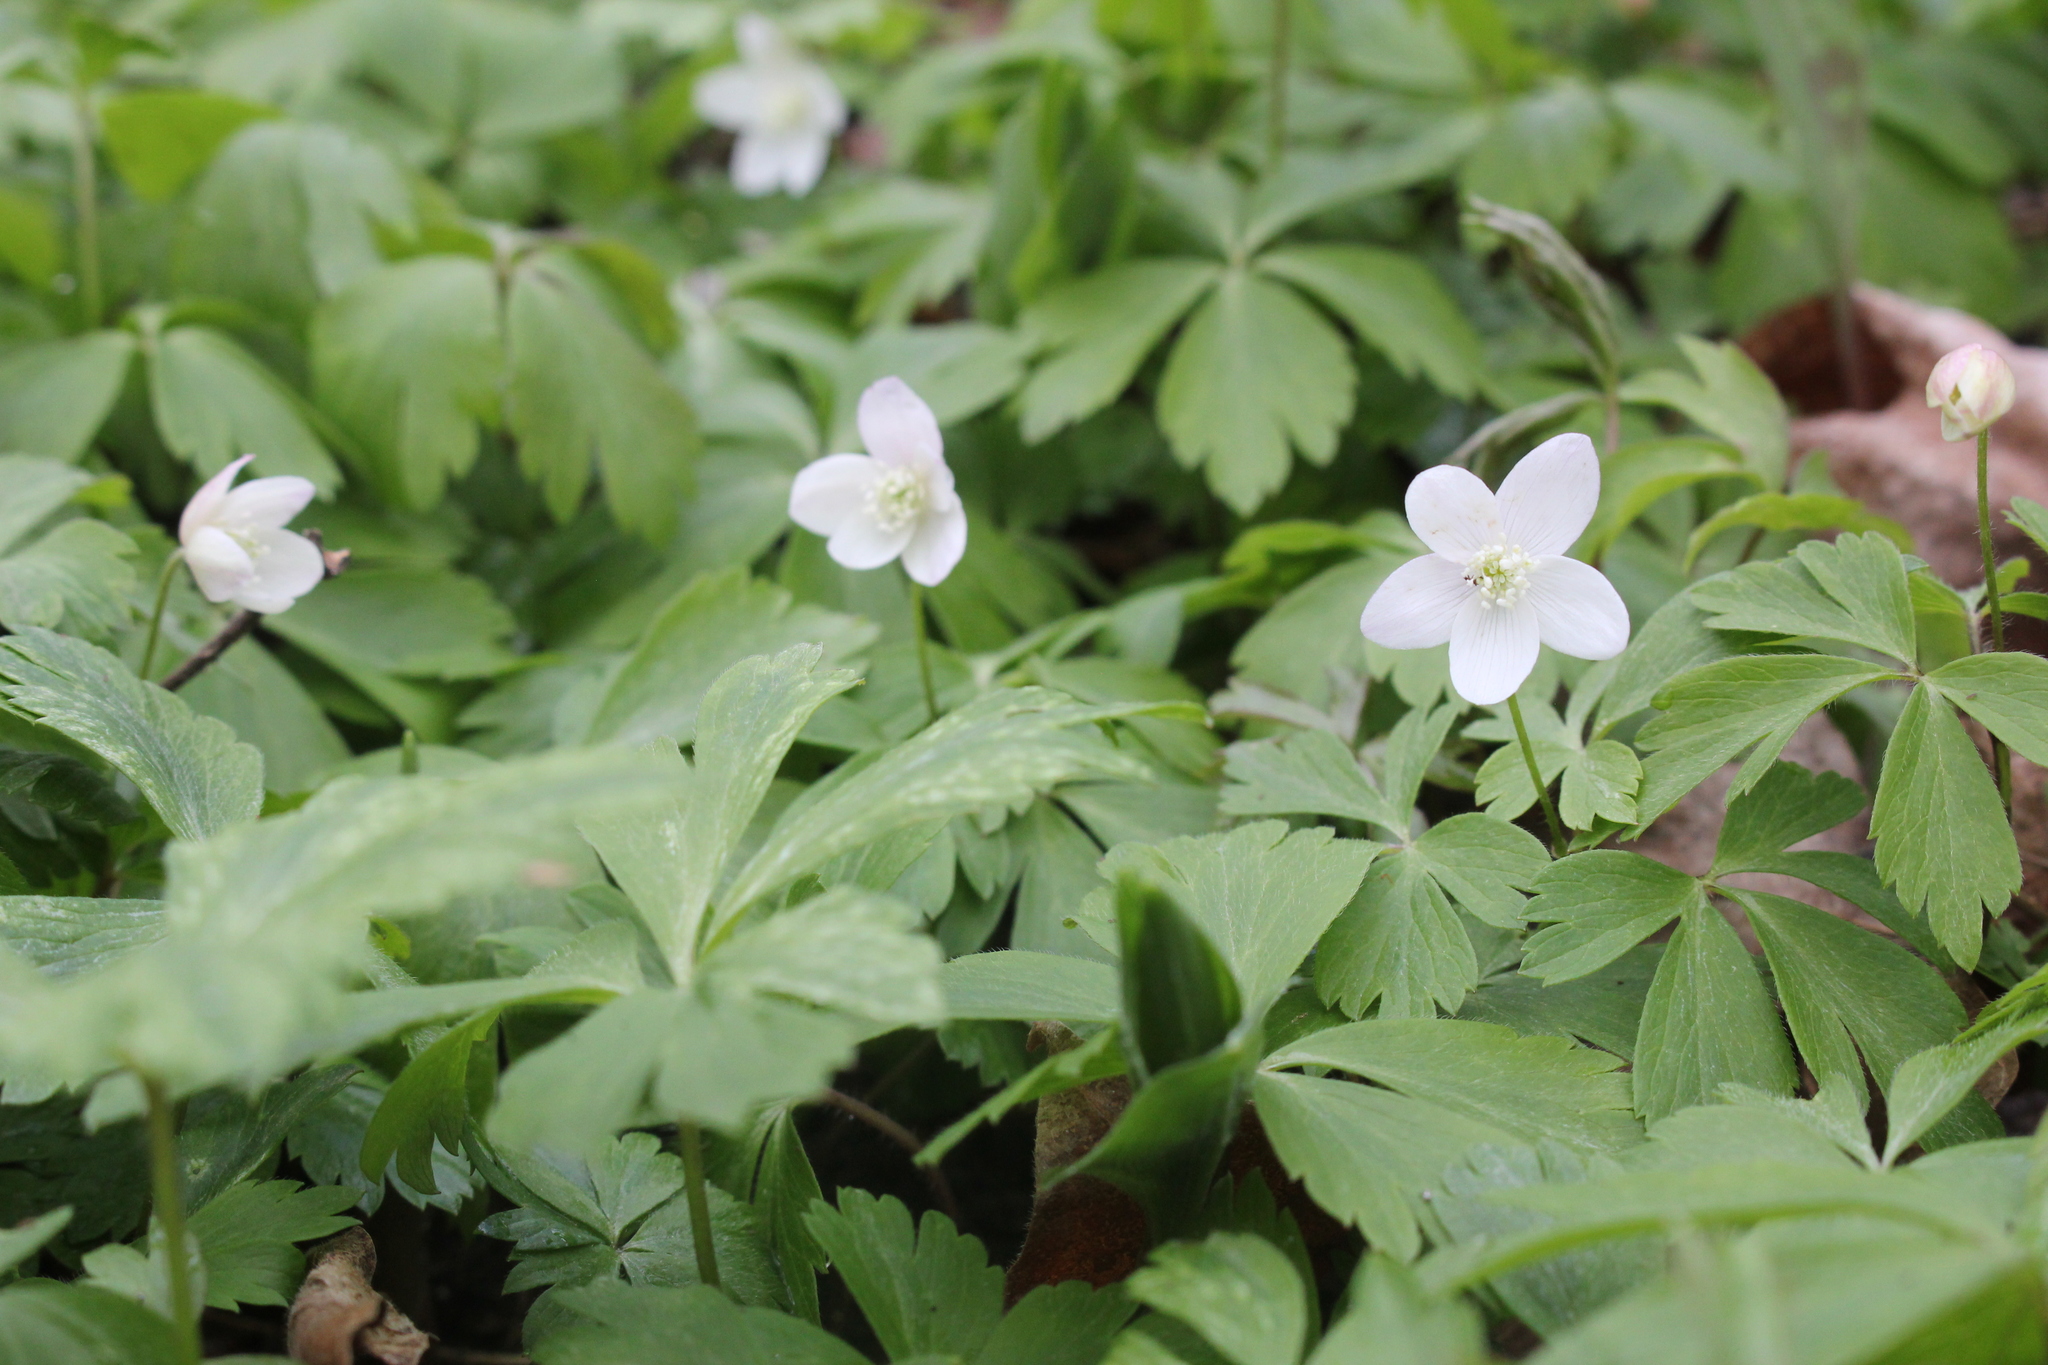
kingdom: Plantae
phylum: Tracheophyta
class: Magnoliopsida
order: Ranunculales
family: Ranunculaceae
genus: Anemone
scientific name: Anemone quinquefolia
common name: Wood anemone
